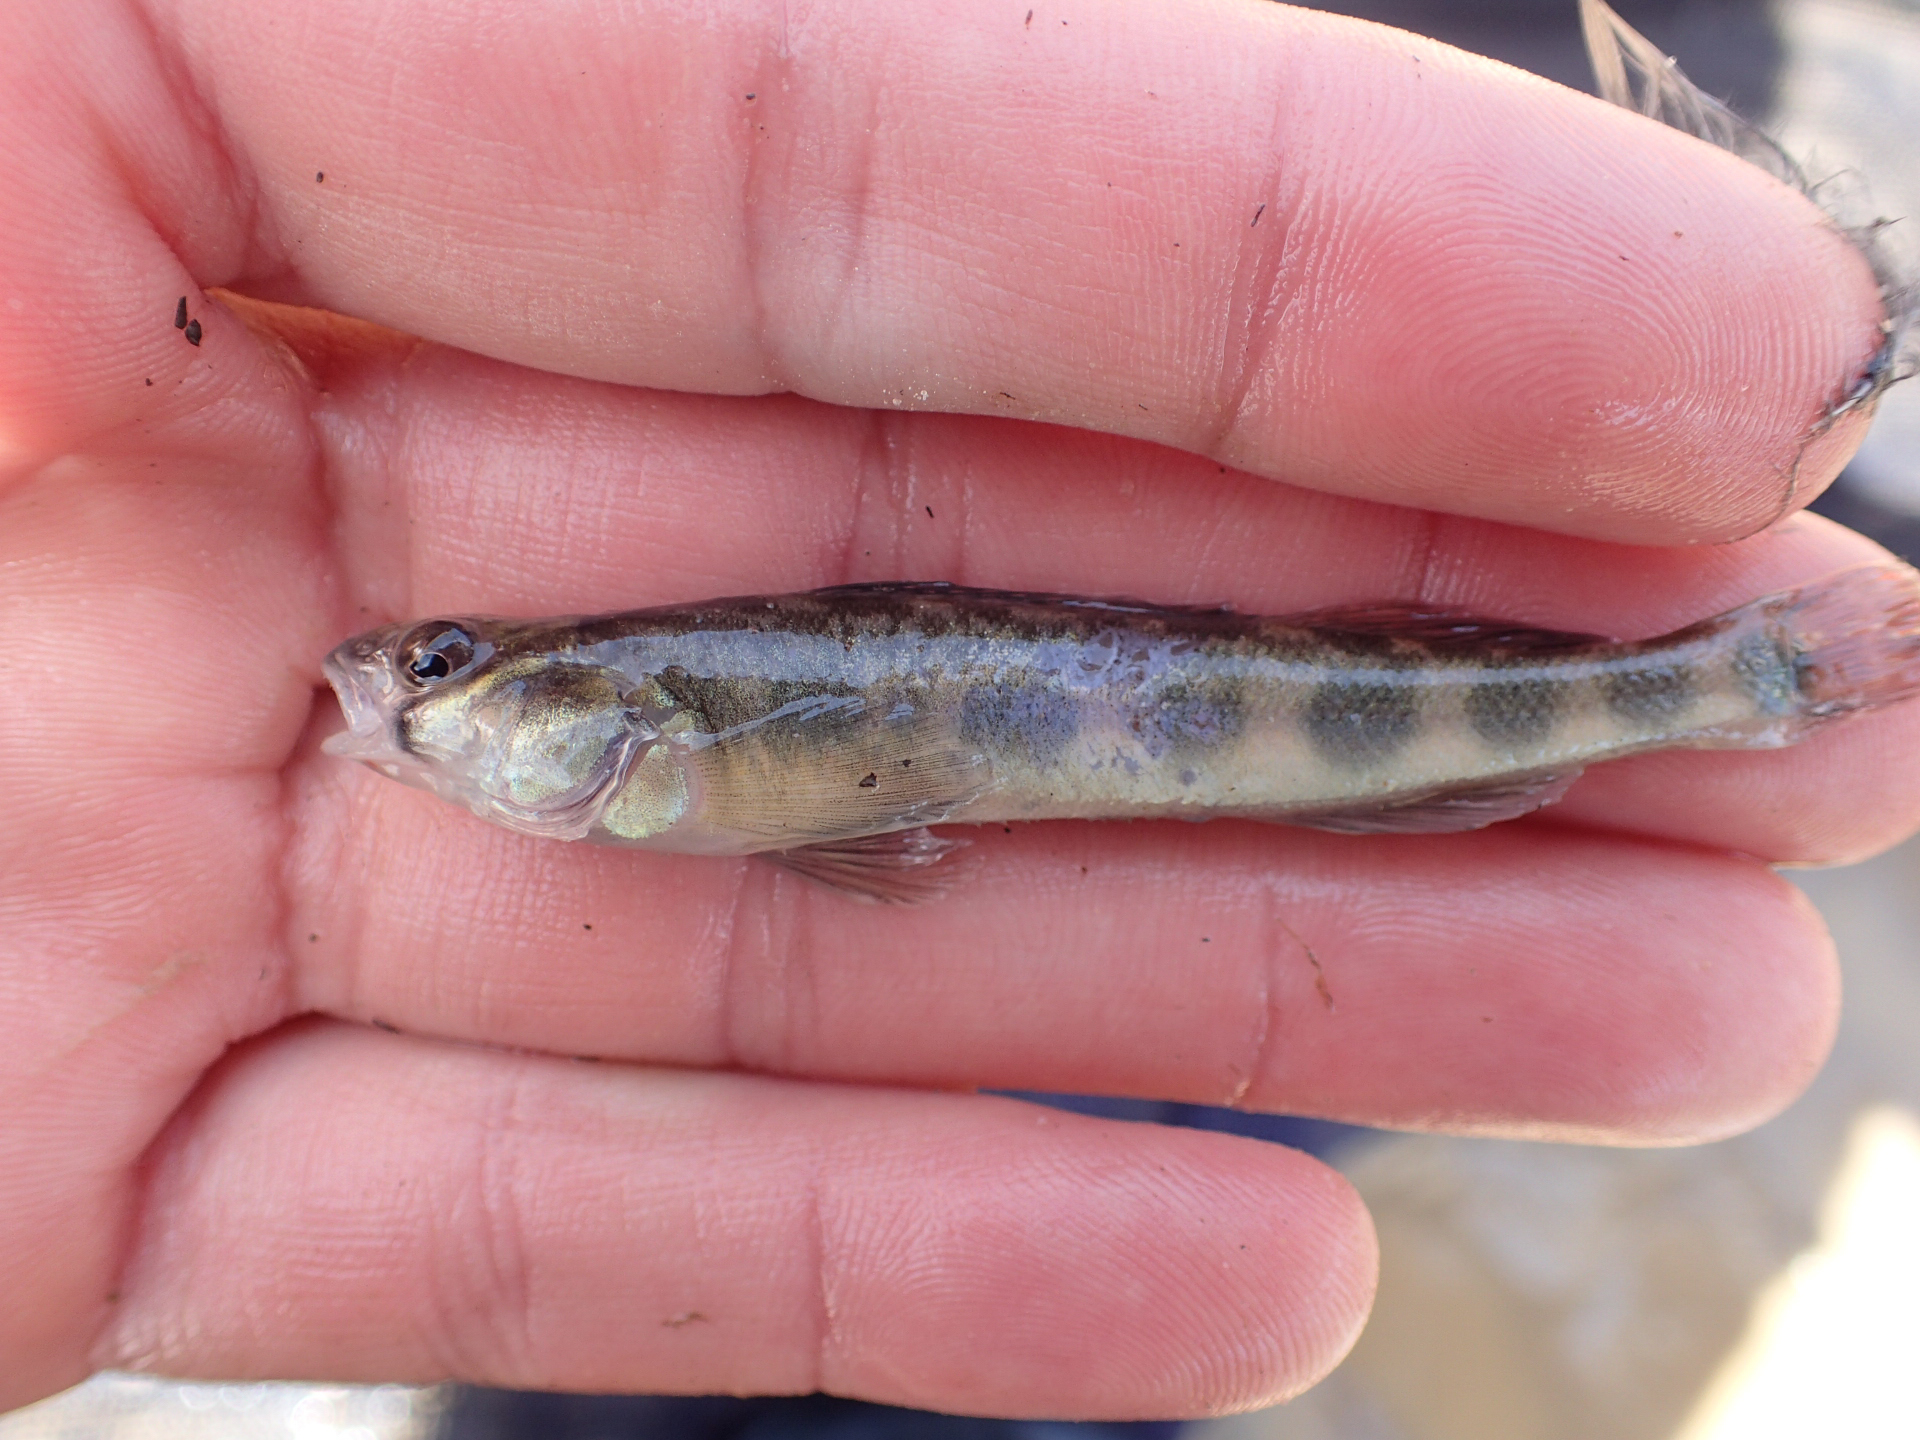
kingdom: Animalia
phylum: Chordata
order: Perciformes
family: Percidae
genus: Percina
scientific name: Percina maculata
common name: Blackside darter
